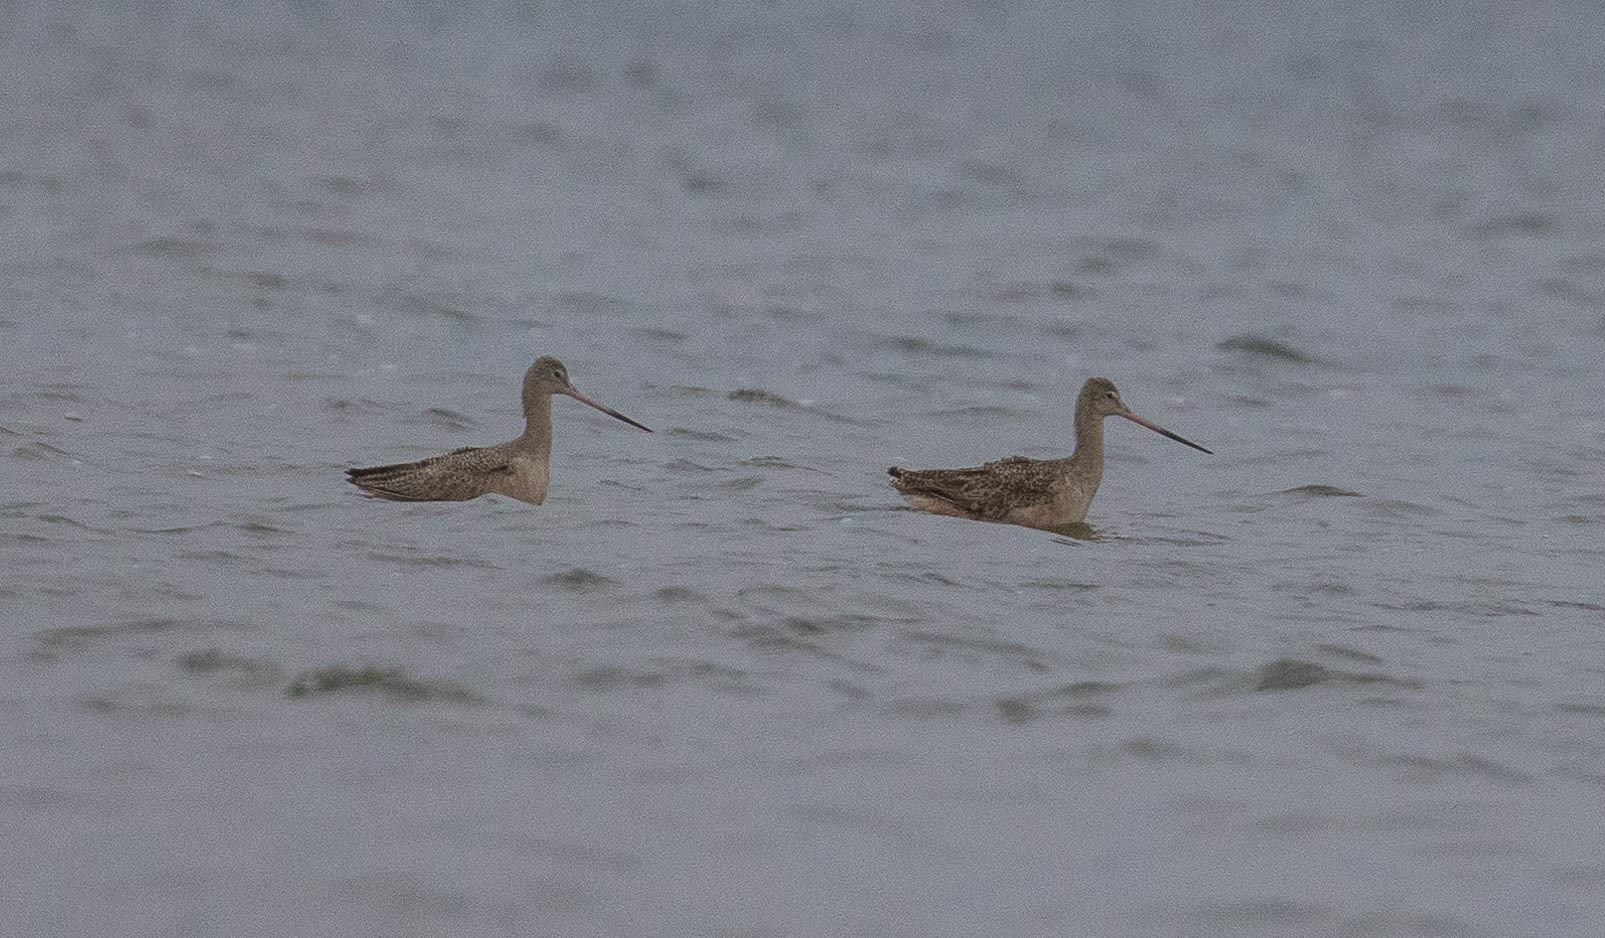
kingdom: Animalia
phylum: Chordata
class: Aves
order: Charadriiformes
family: Scolopacidae
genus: Limosa
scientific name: Limosa fedoa
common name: Marbled godwit
